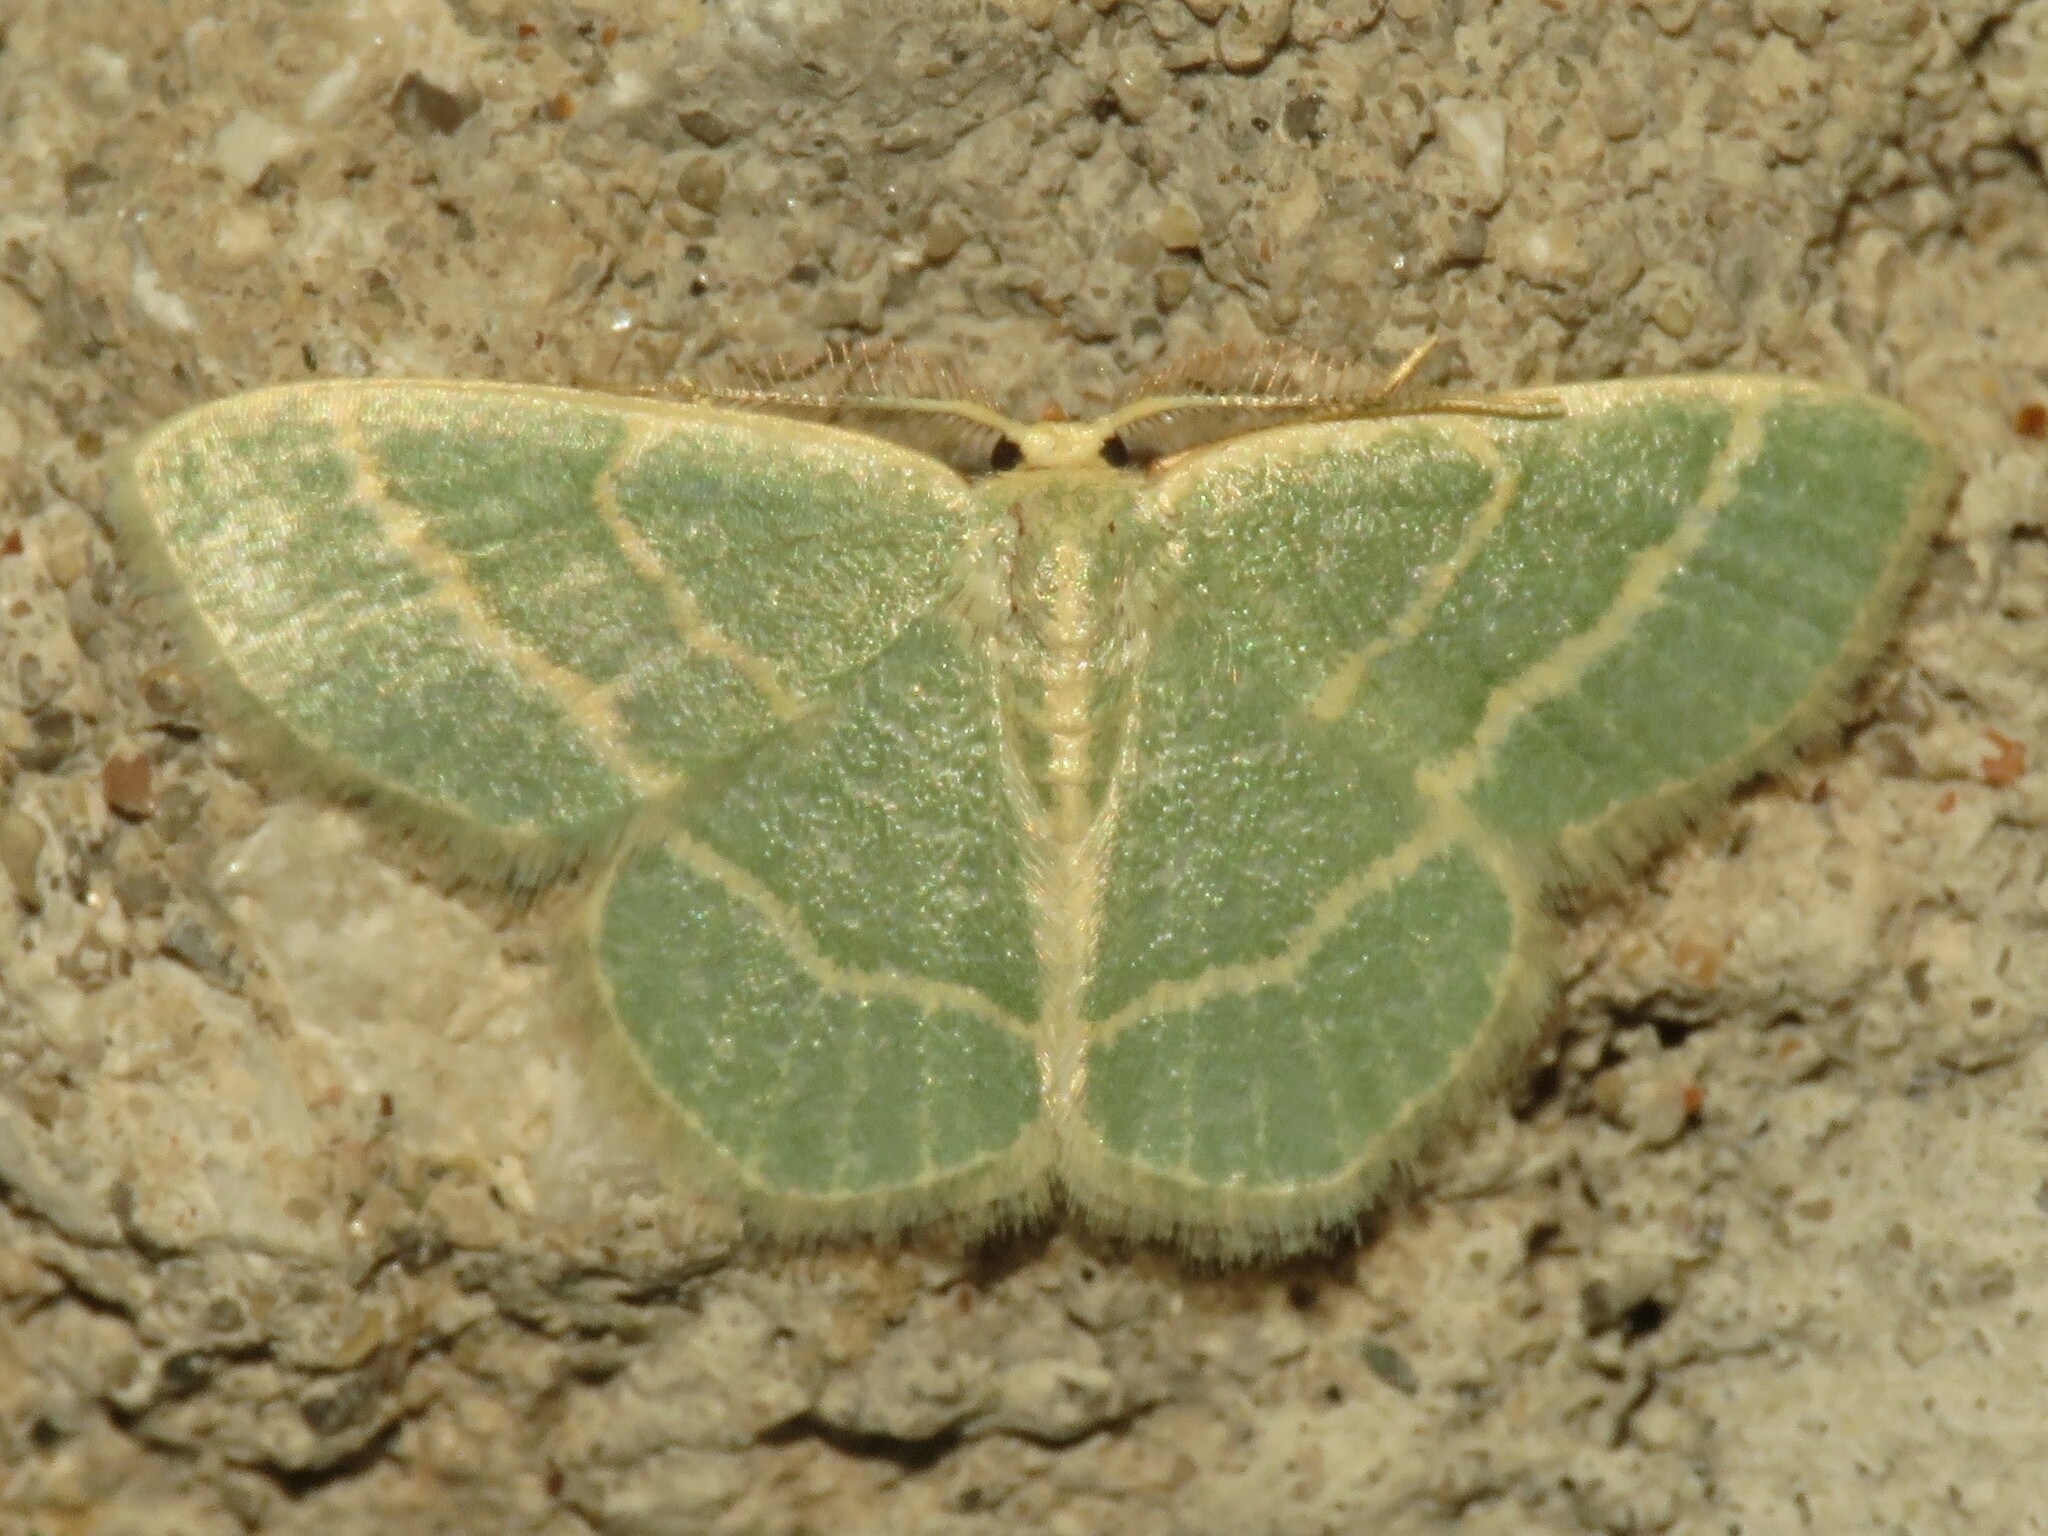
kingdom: Animalia
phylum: Arthropoda
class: Insecta
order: Lepidoptera
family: Geometridae
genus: Chlorochlamys
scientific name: Chlorochlamys chloroleucaria
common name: Blackberry looper
